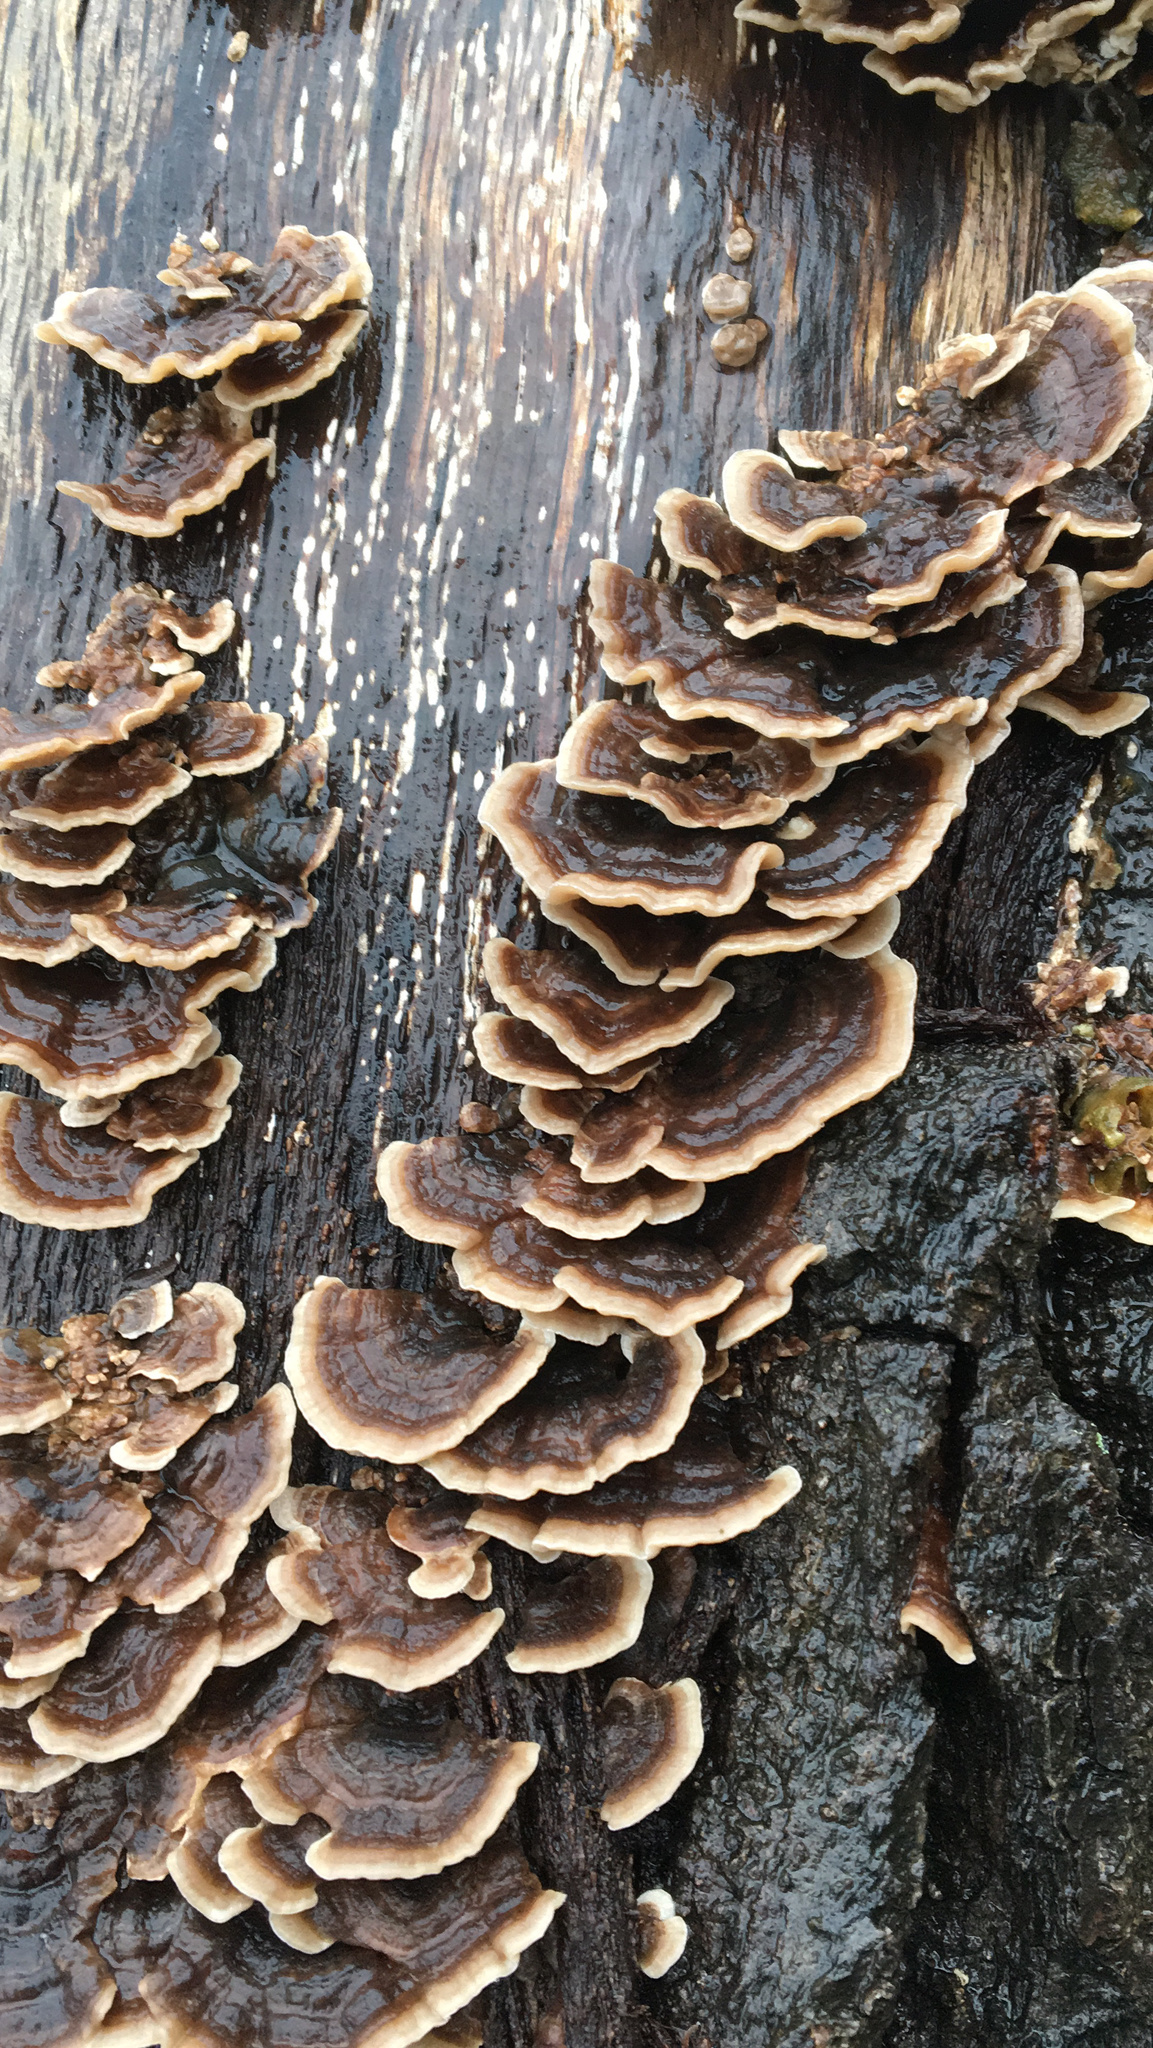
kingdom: Fungi
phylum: Basidiomycota
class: Agaricomycetes
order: Polyporales
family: Polyporaceae
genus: Trametes
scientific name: Trametes versicolor
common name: Turkeytail
